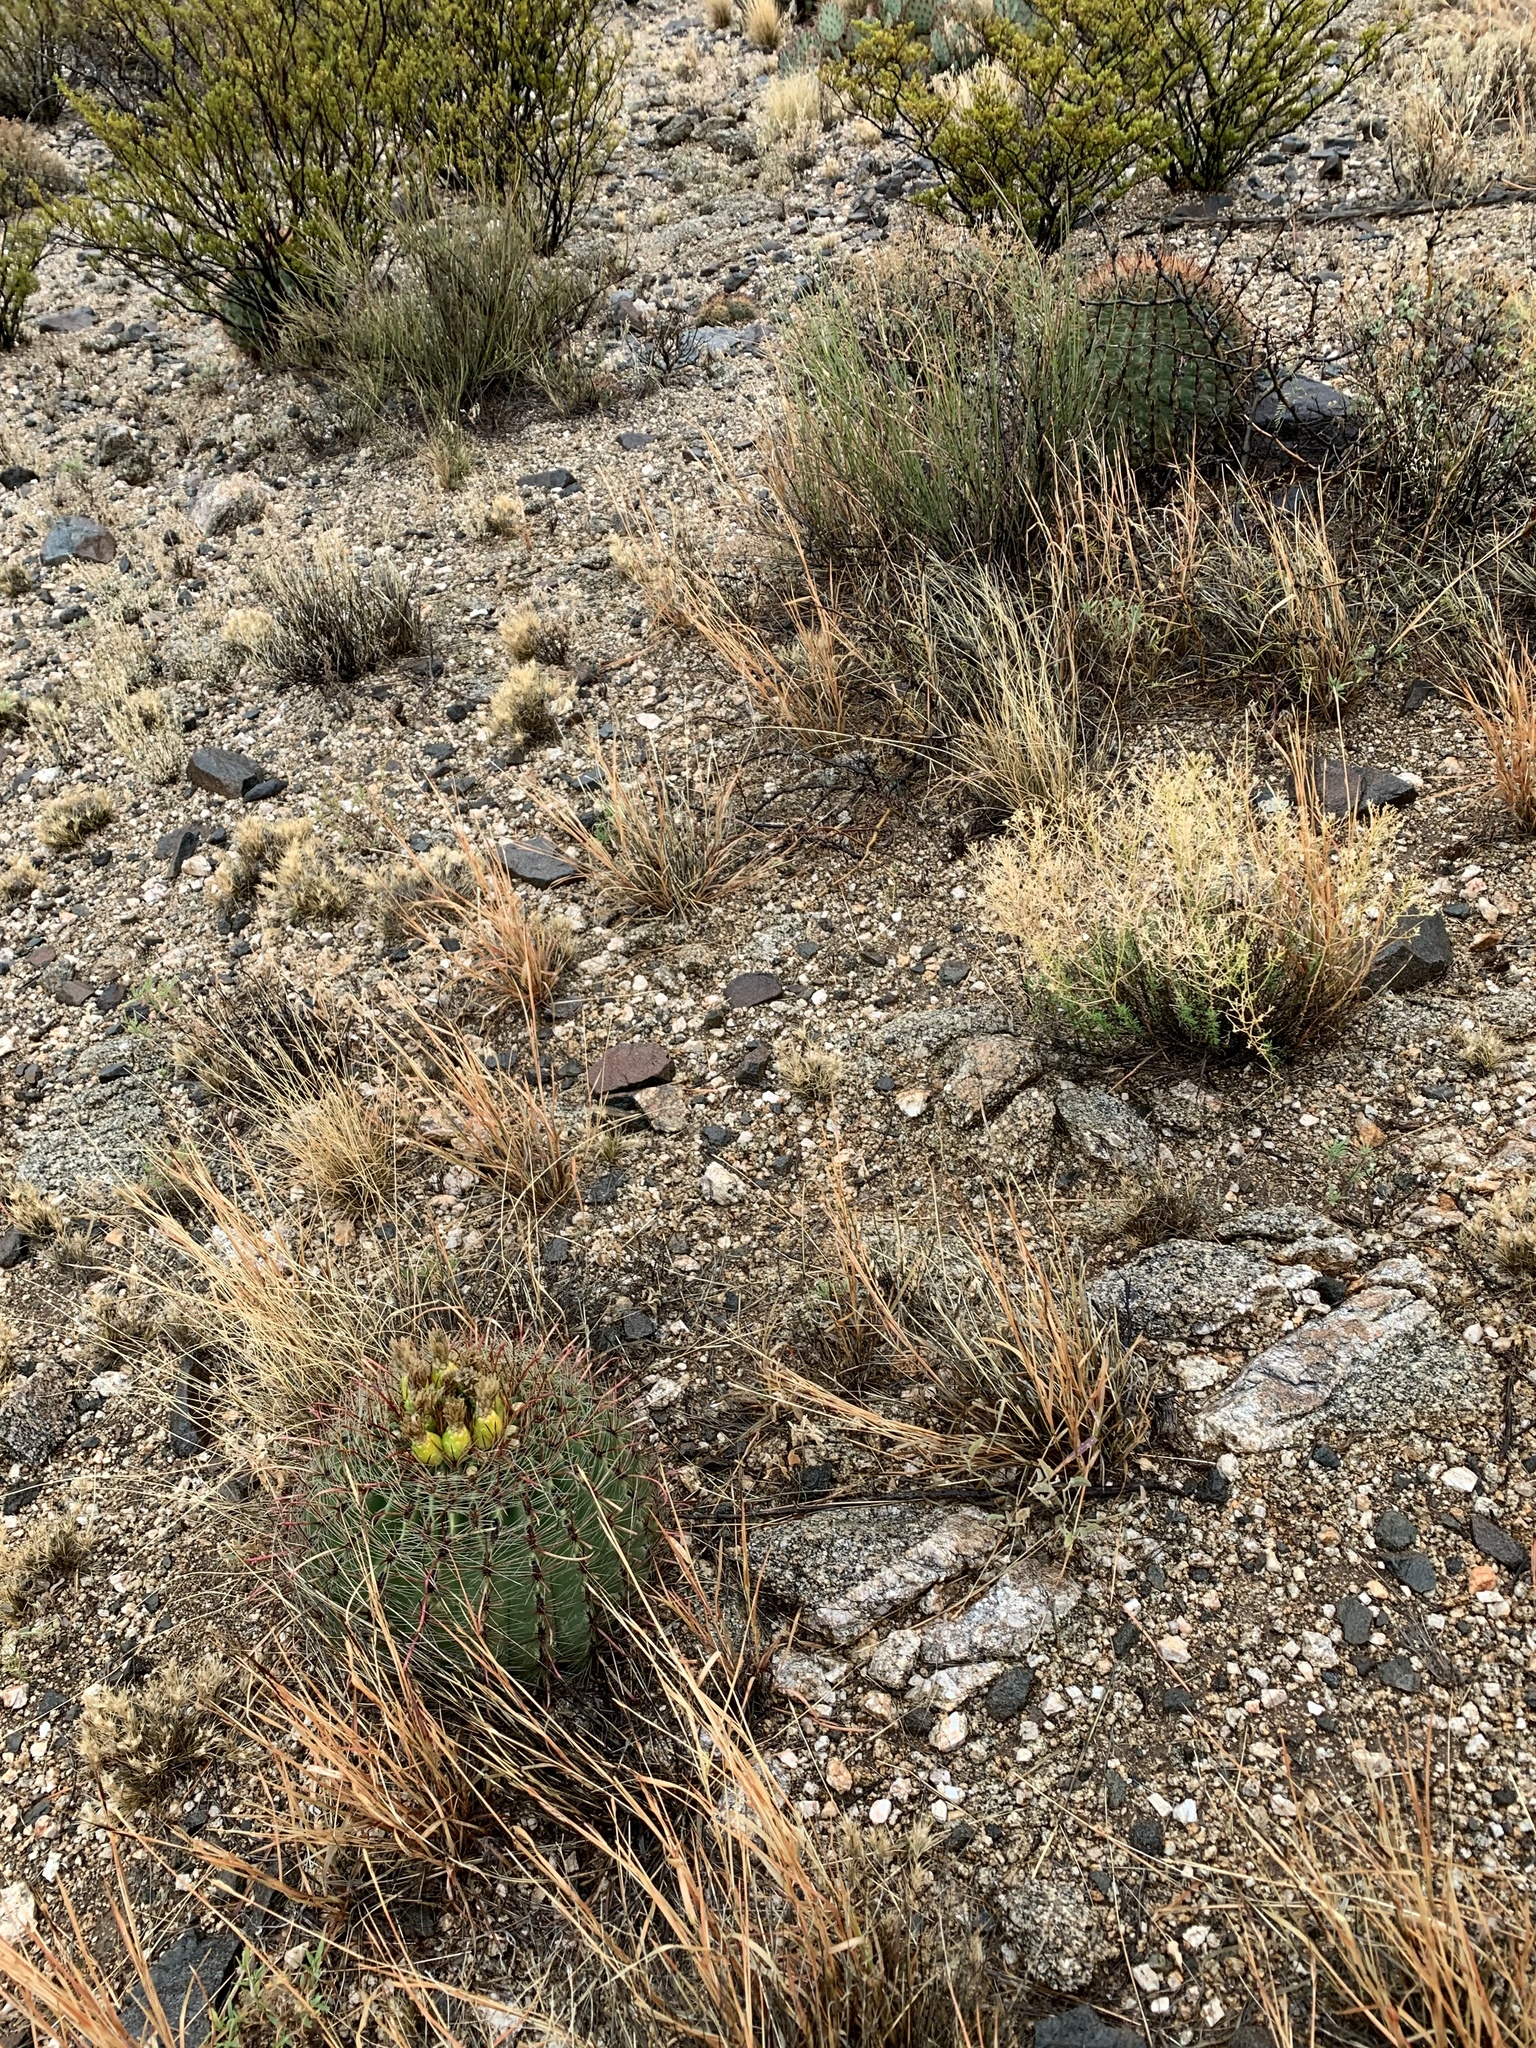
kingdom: Plantae
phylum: Tracheophyta
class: Magnoliopsida
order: Caryophyllales
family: Cactaceae
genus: Ferocactus
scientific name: Ferocactus wislizeni
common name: Candy barrel cactus
